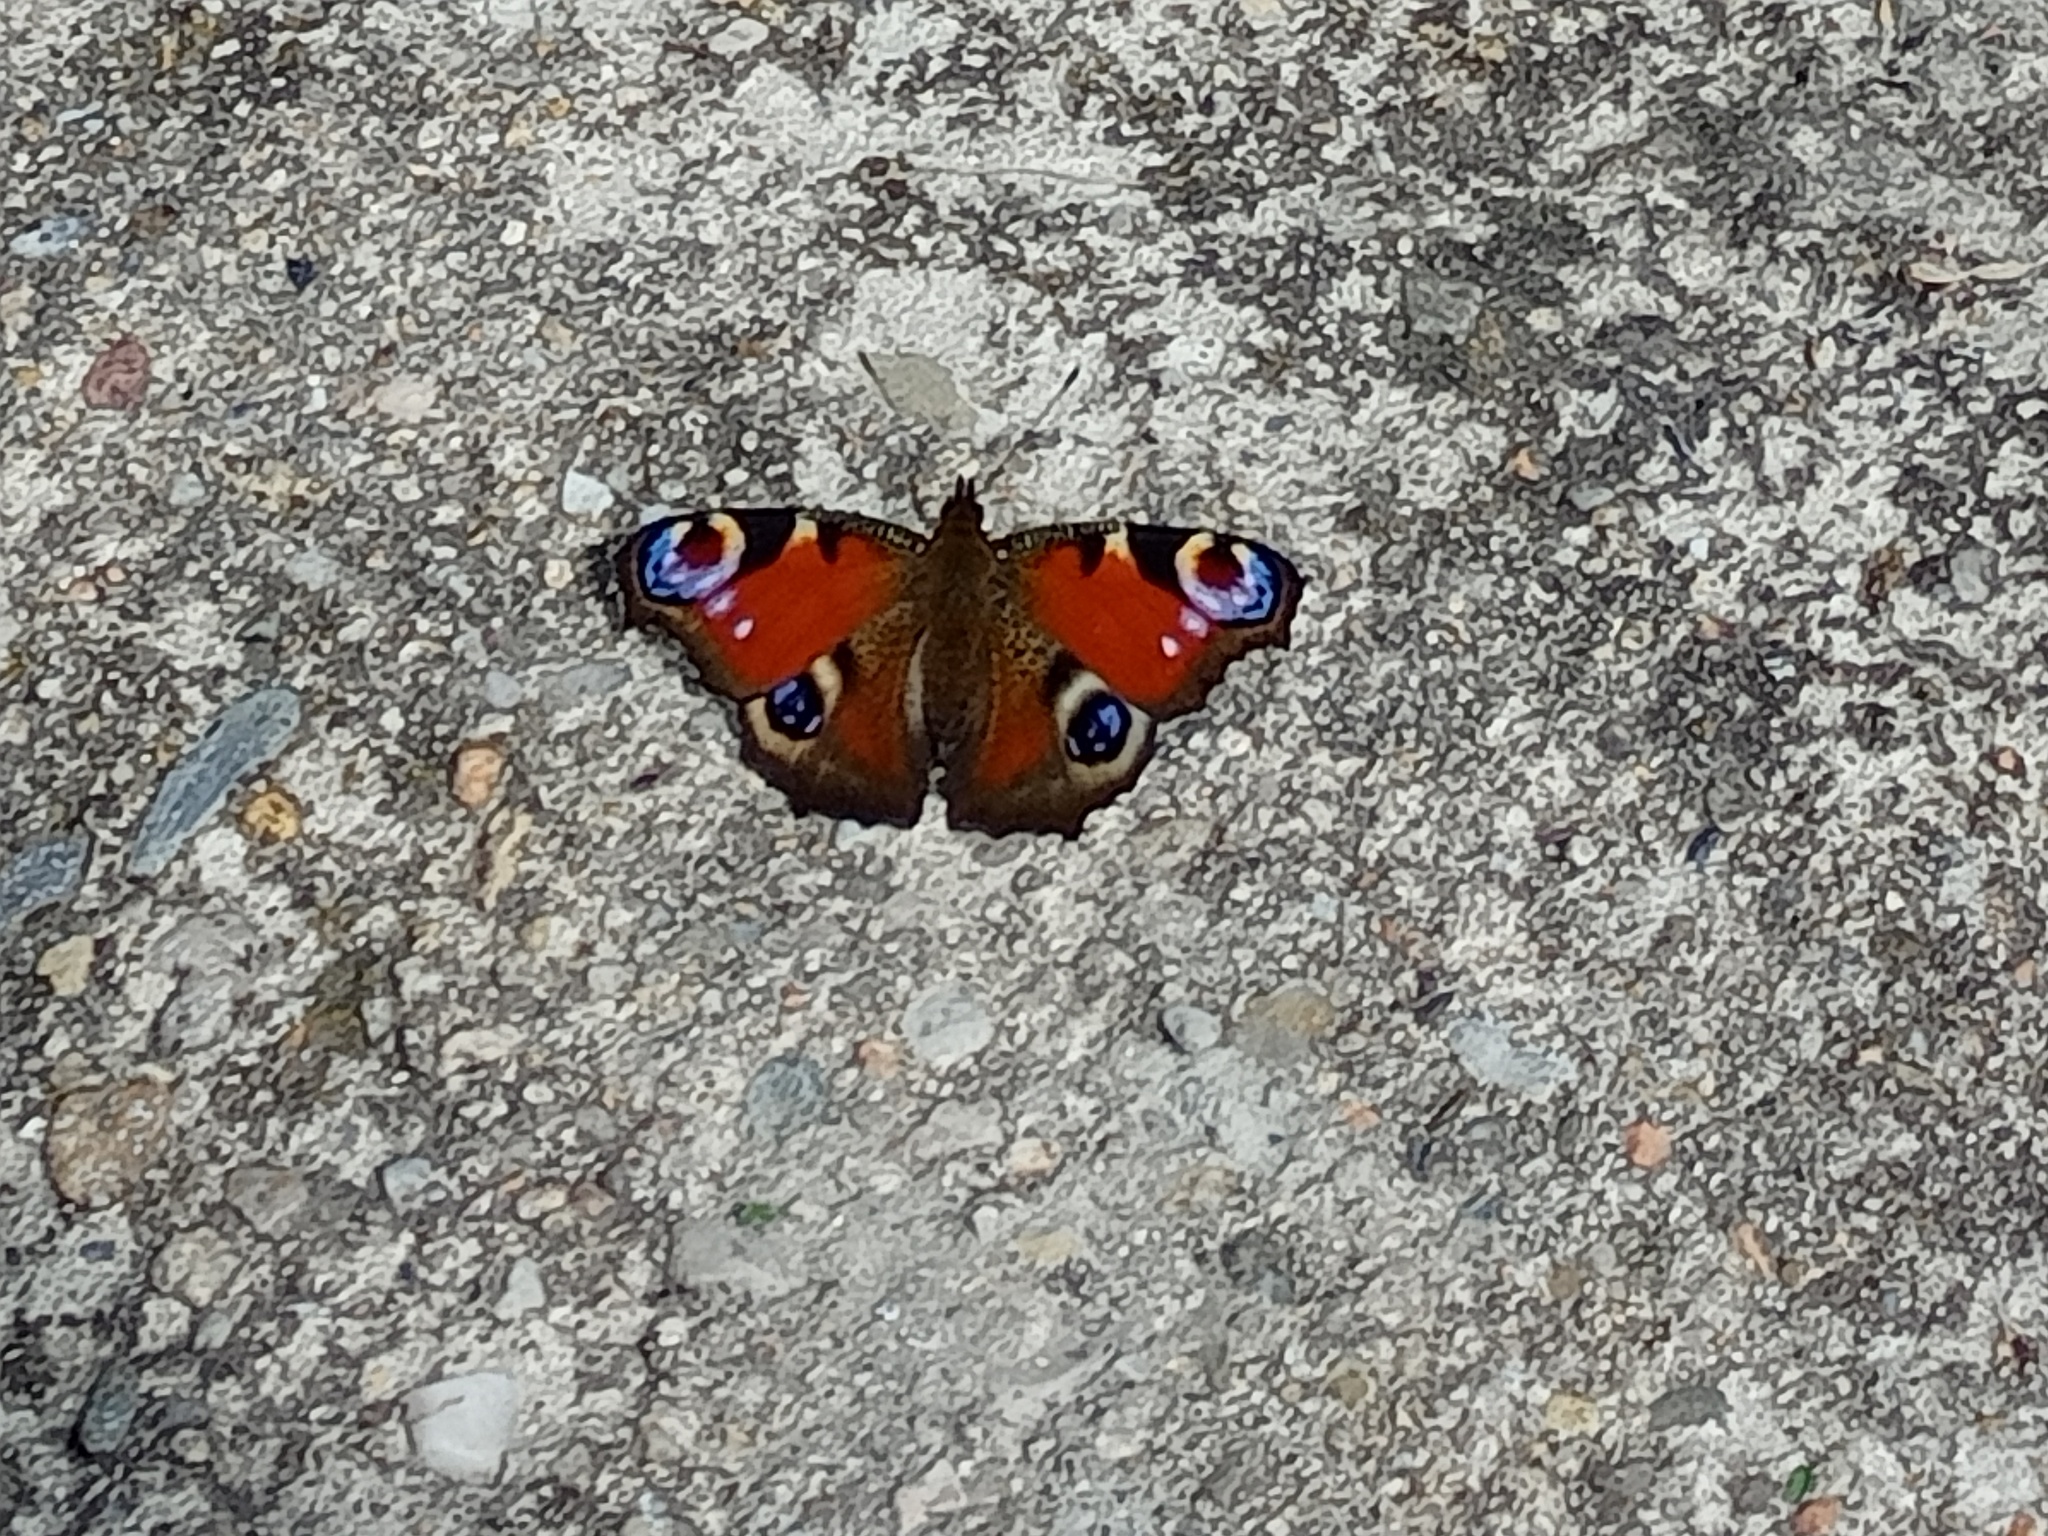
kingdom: Animalia
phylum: Arthropoda
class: Insecta
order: Lepidoptera
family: Nymphalidae
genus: Aglais
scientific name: Aglais io
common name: Peacock
